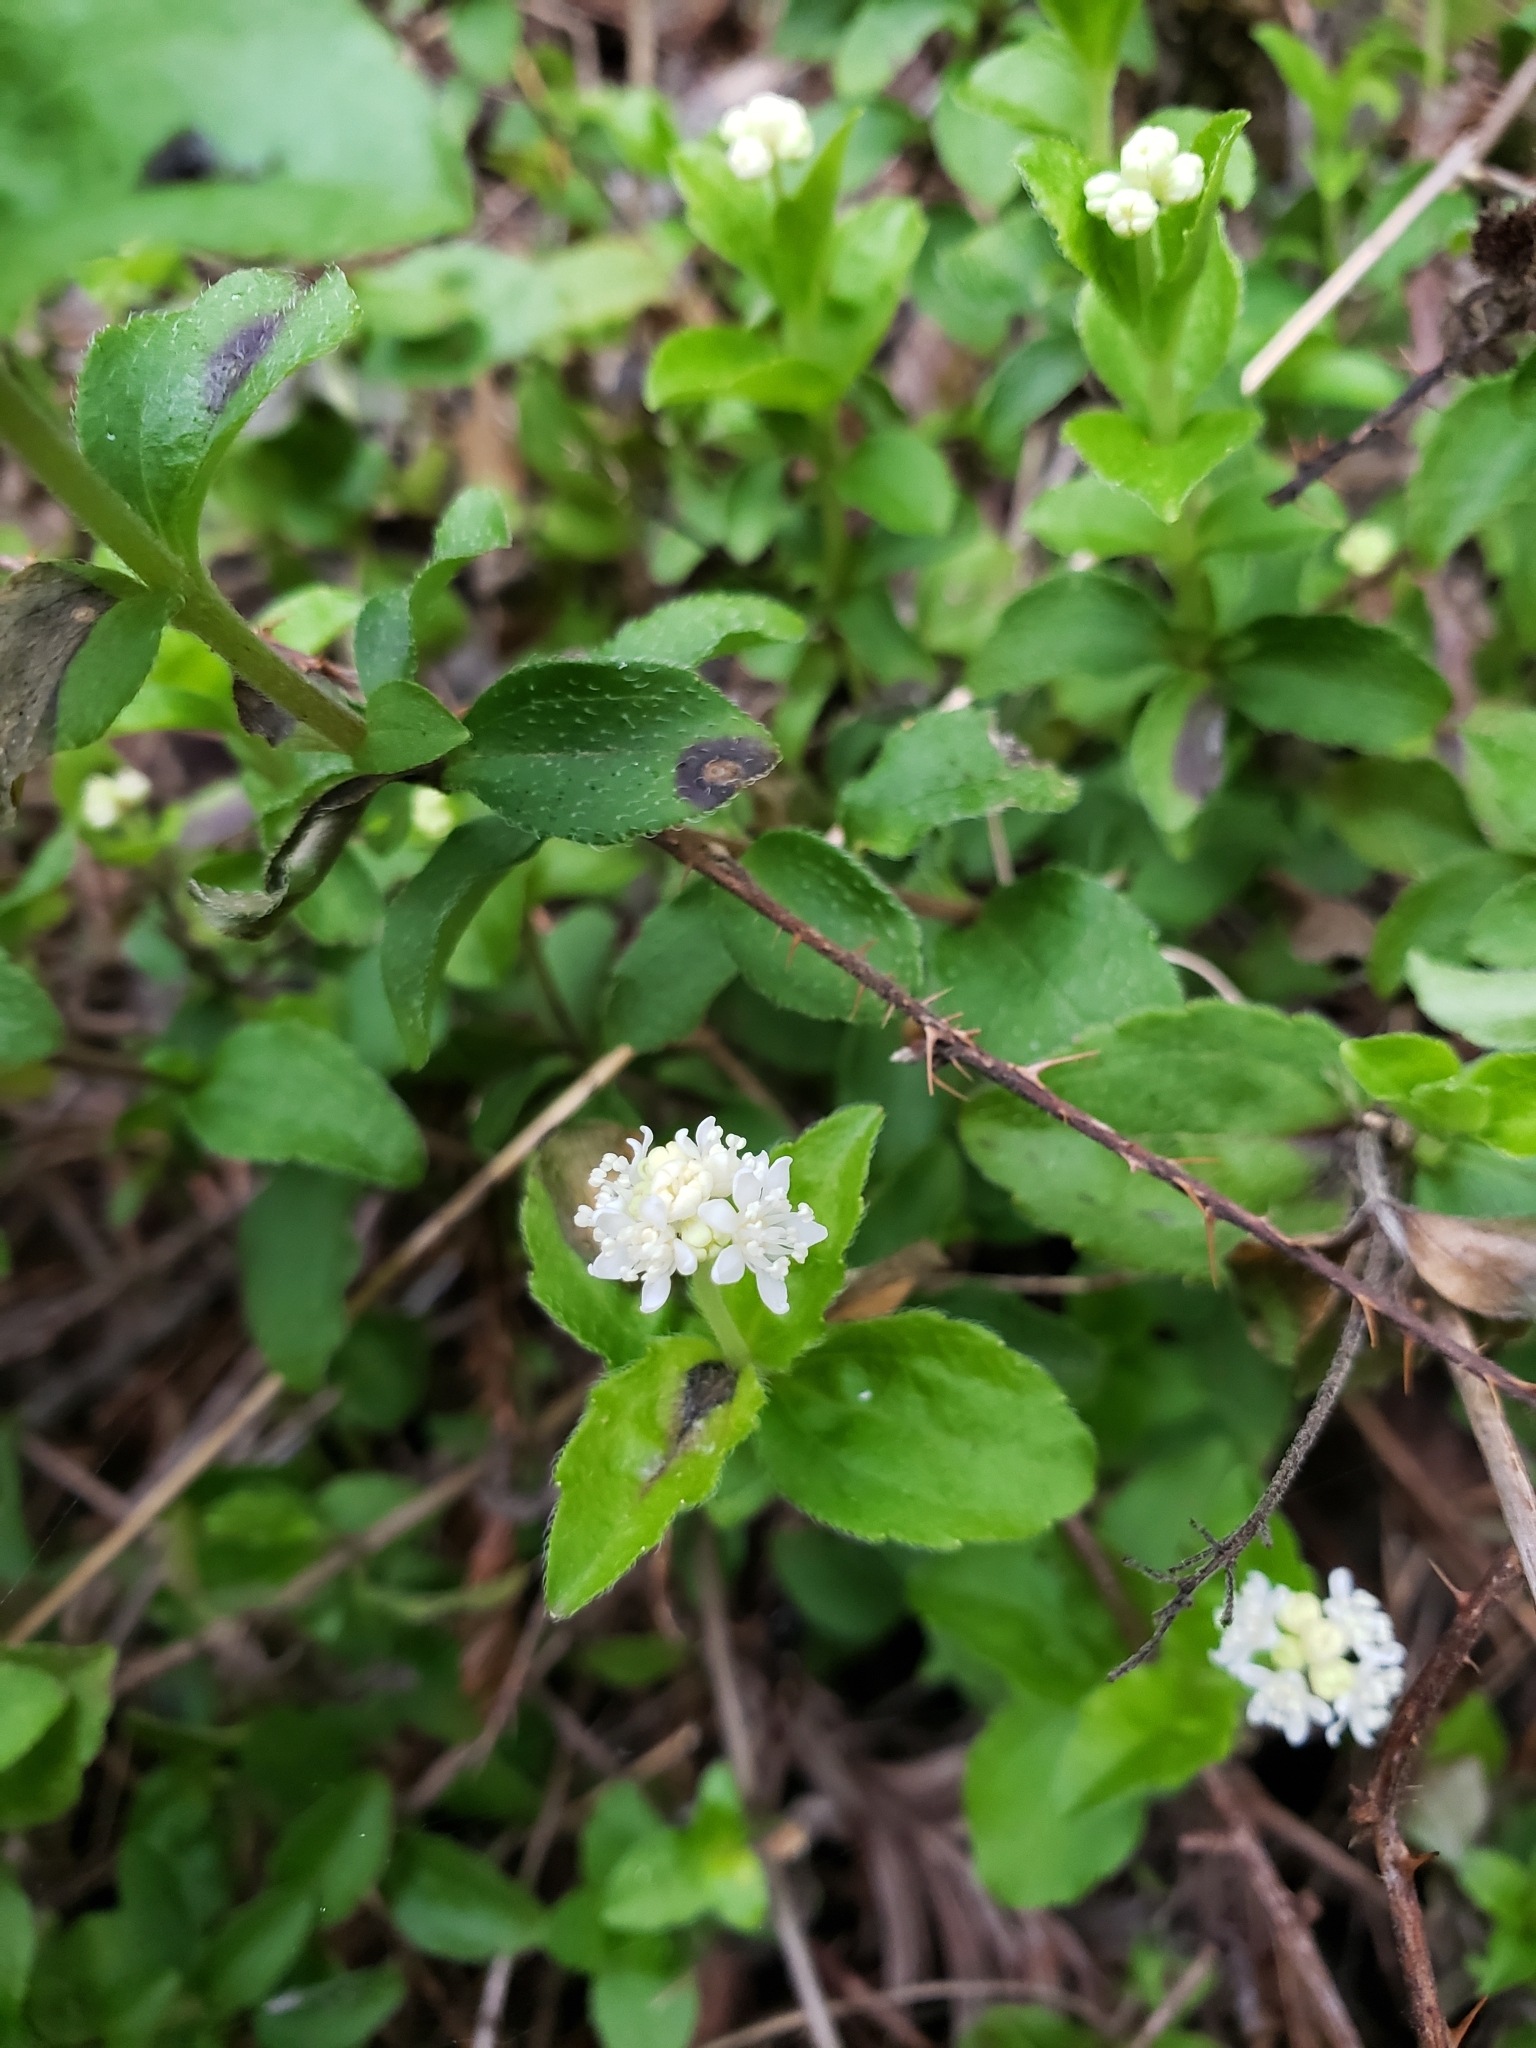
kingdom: Plantae
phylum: Tracheophyta
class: Magnoliopsida
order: Cornales
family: Hydrangeaceae
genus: Whipplea
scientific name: Whipplea modesta
